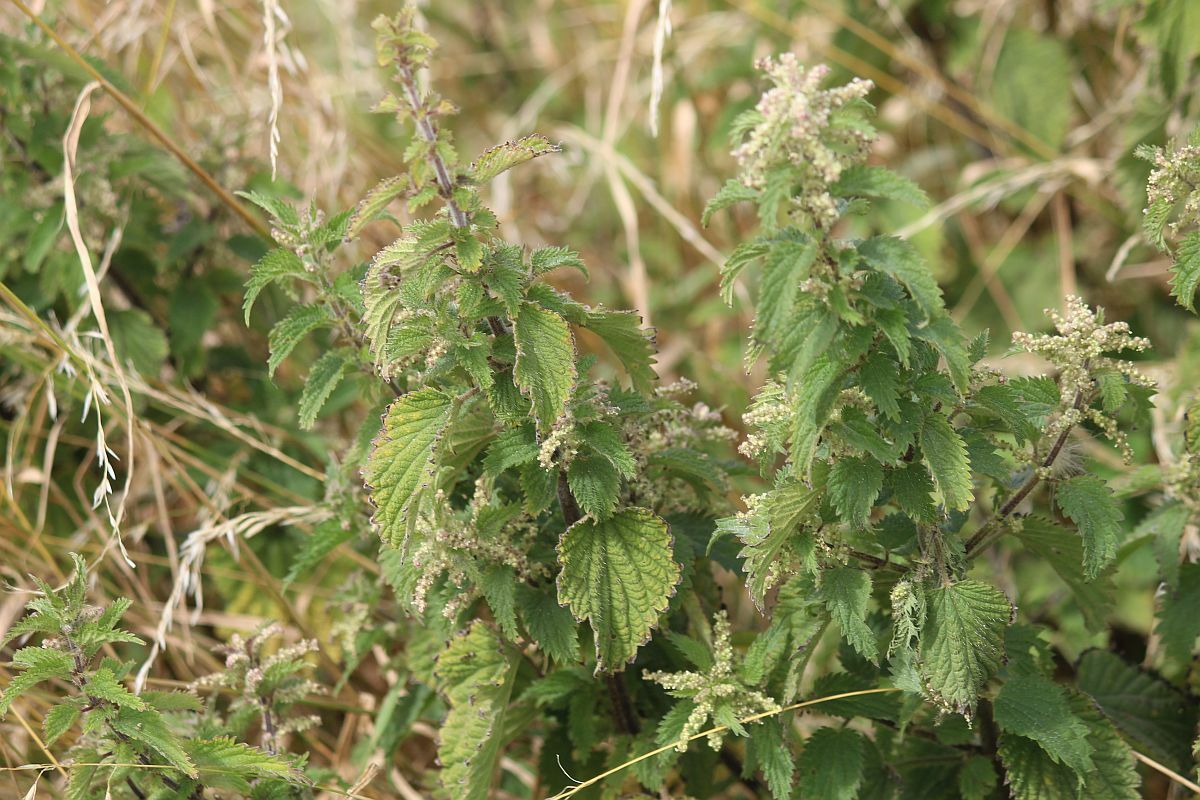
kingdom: Plantae
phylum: Tracheophyta
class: Magnoliopsida
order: Rosales
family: Urticaceae
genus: Urtica
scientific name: Urtica dioica
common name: Common nettle
